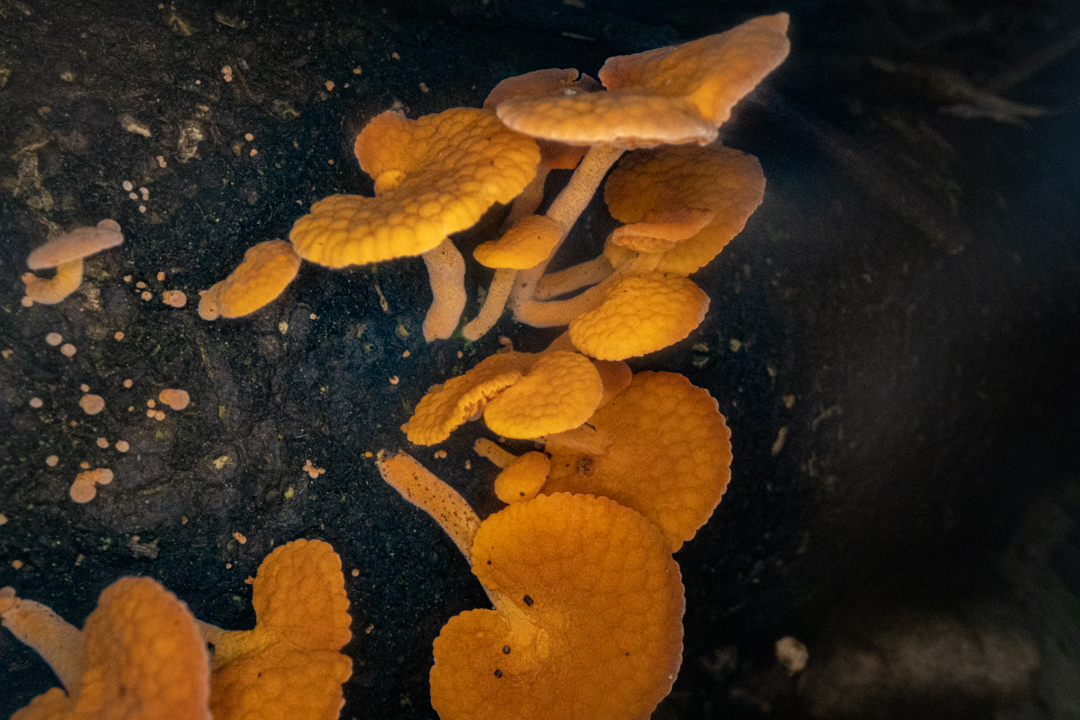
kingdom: Fungi
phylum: Basidiomycota
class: Agaricomycetes
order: Agaricales
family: Mycenaceae
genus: Favolaschia
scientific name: Favolaschia claudopus
